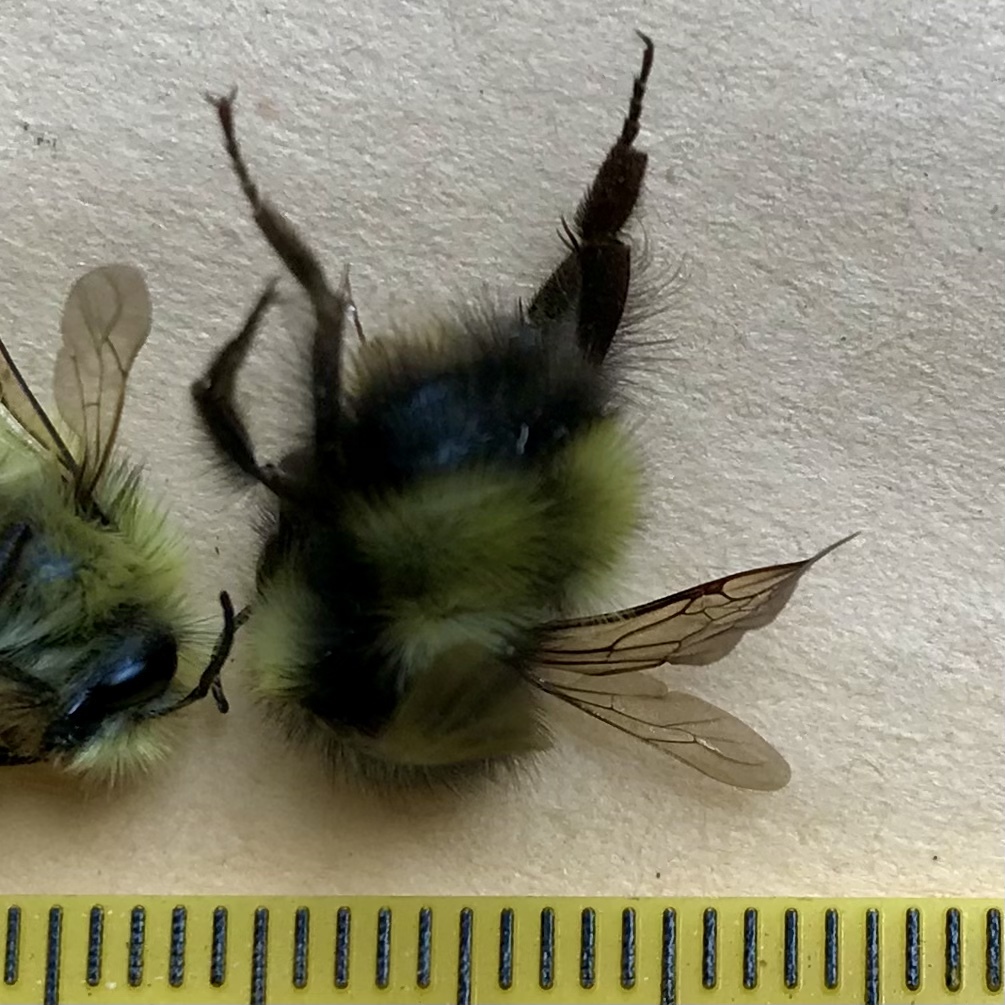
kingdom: Animalia
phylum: Arthropoda
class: Insecta
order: Hymenoptera
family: Apidae
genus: Bombus
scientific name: Bombus sitkensis
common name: Sitka bumble bee
